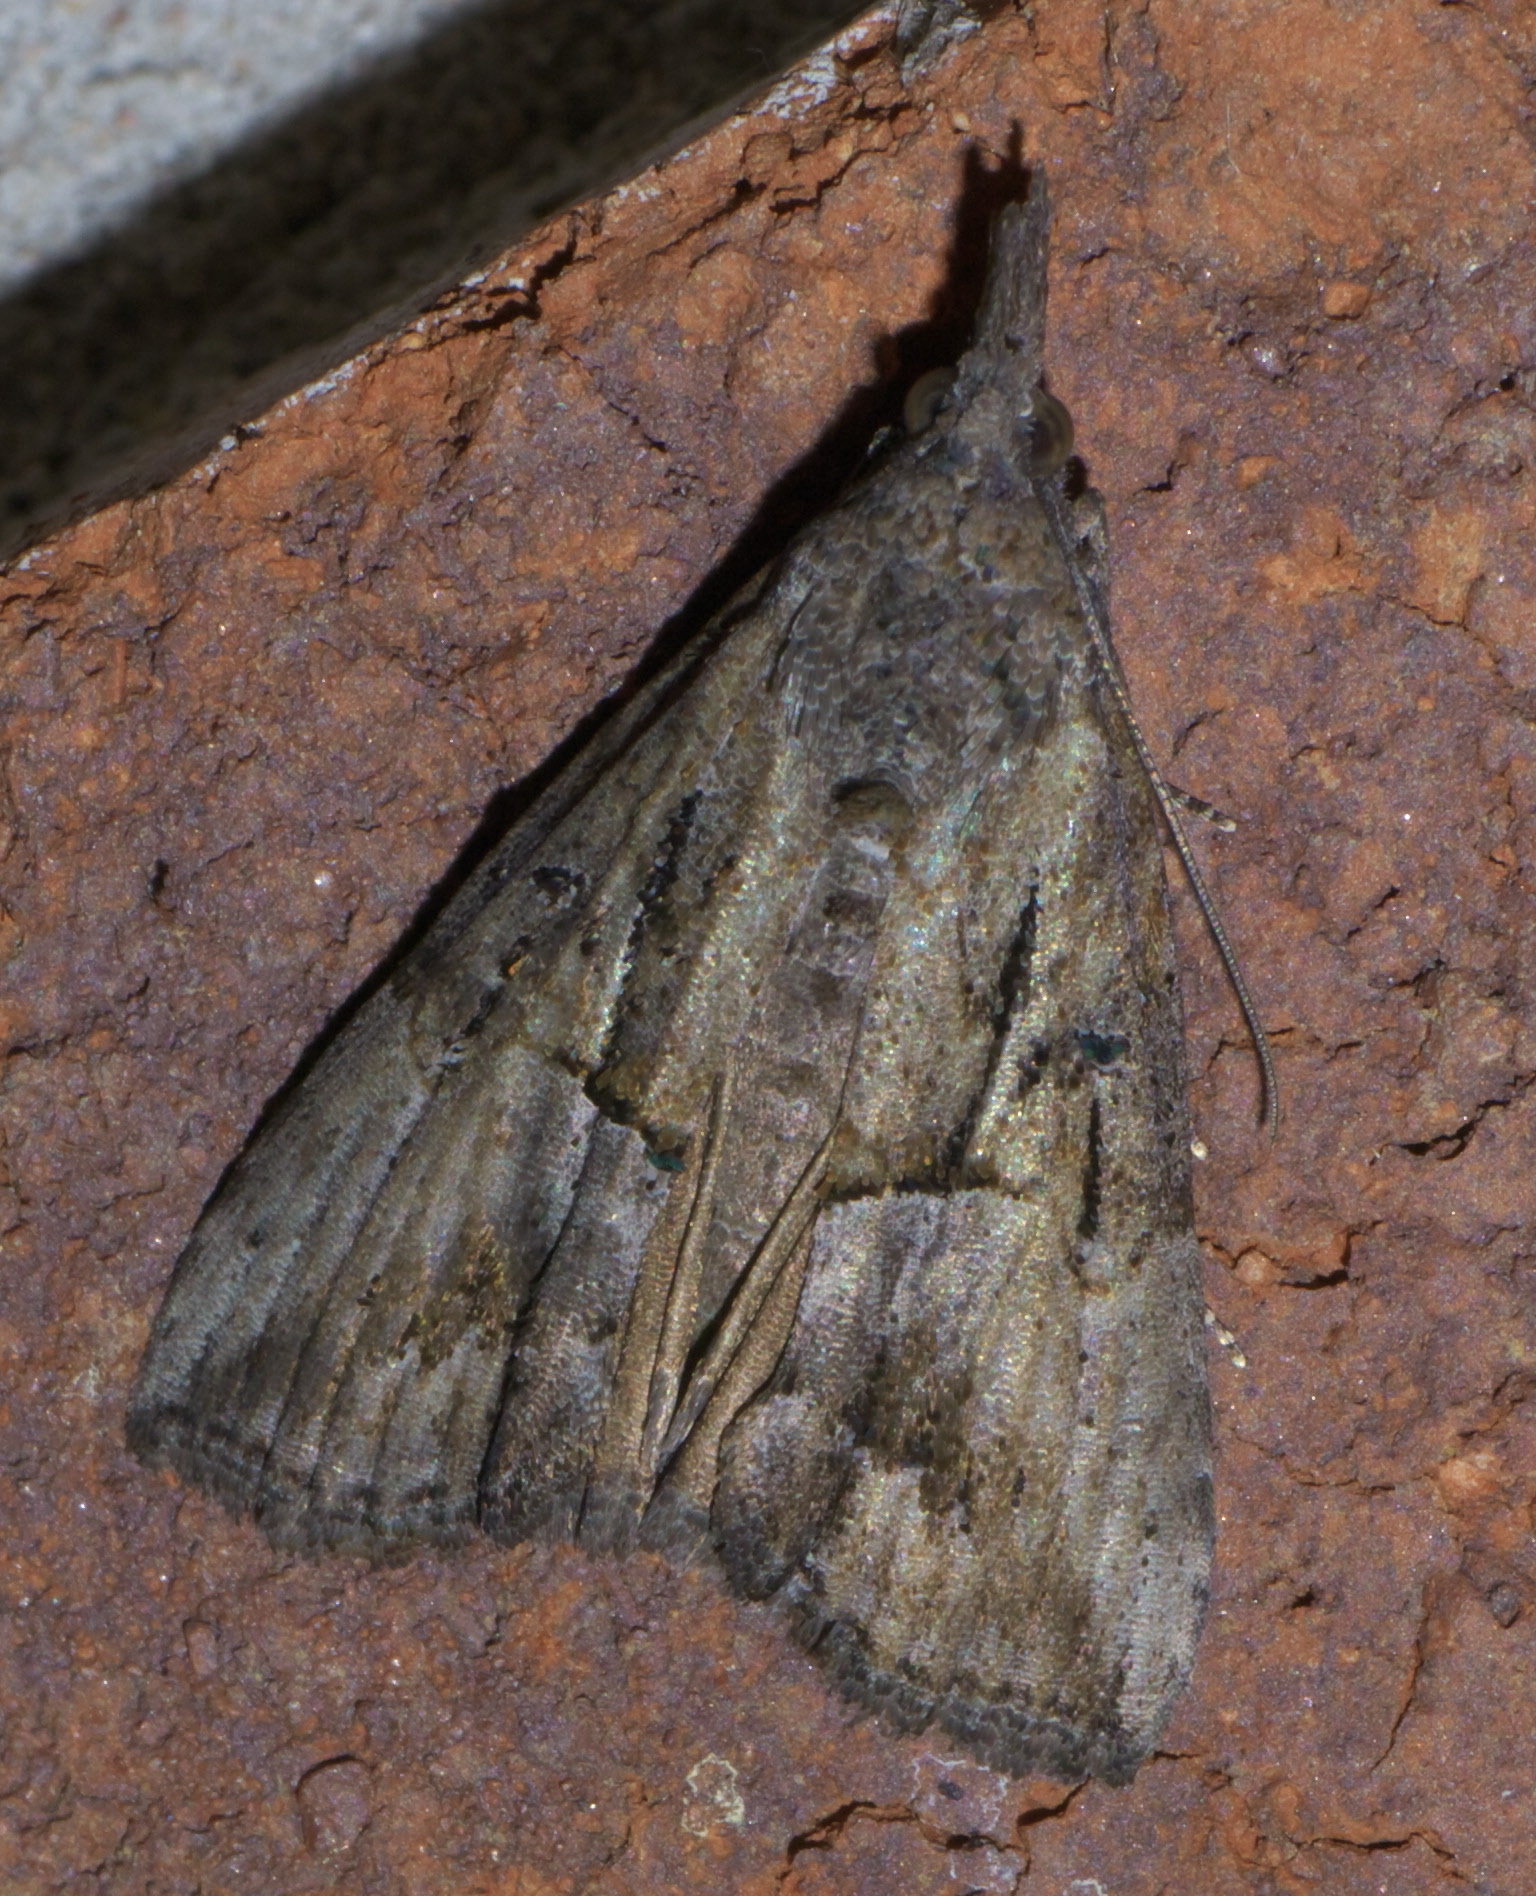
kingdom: Animalia
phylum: Arthropoda
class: Insecta
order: Lepidoptera
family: Erebidae
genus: Hypena
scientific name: Hypena scabra
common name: Green cloverworm
